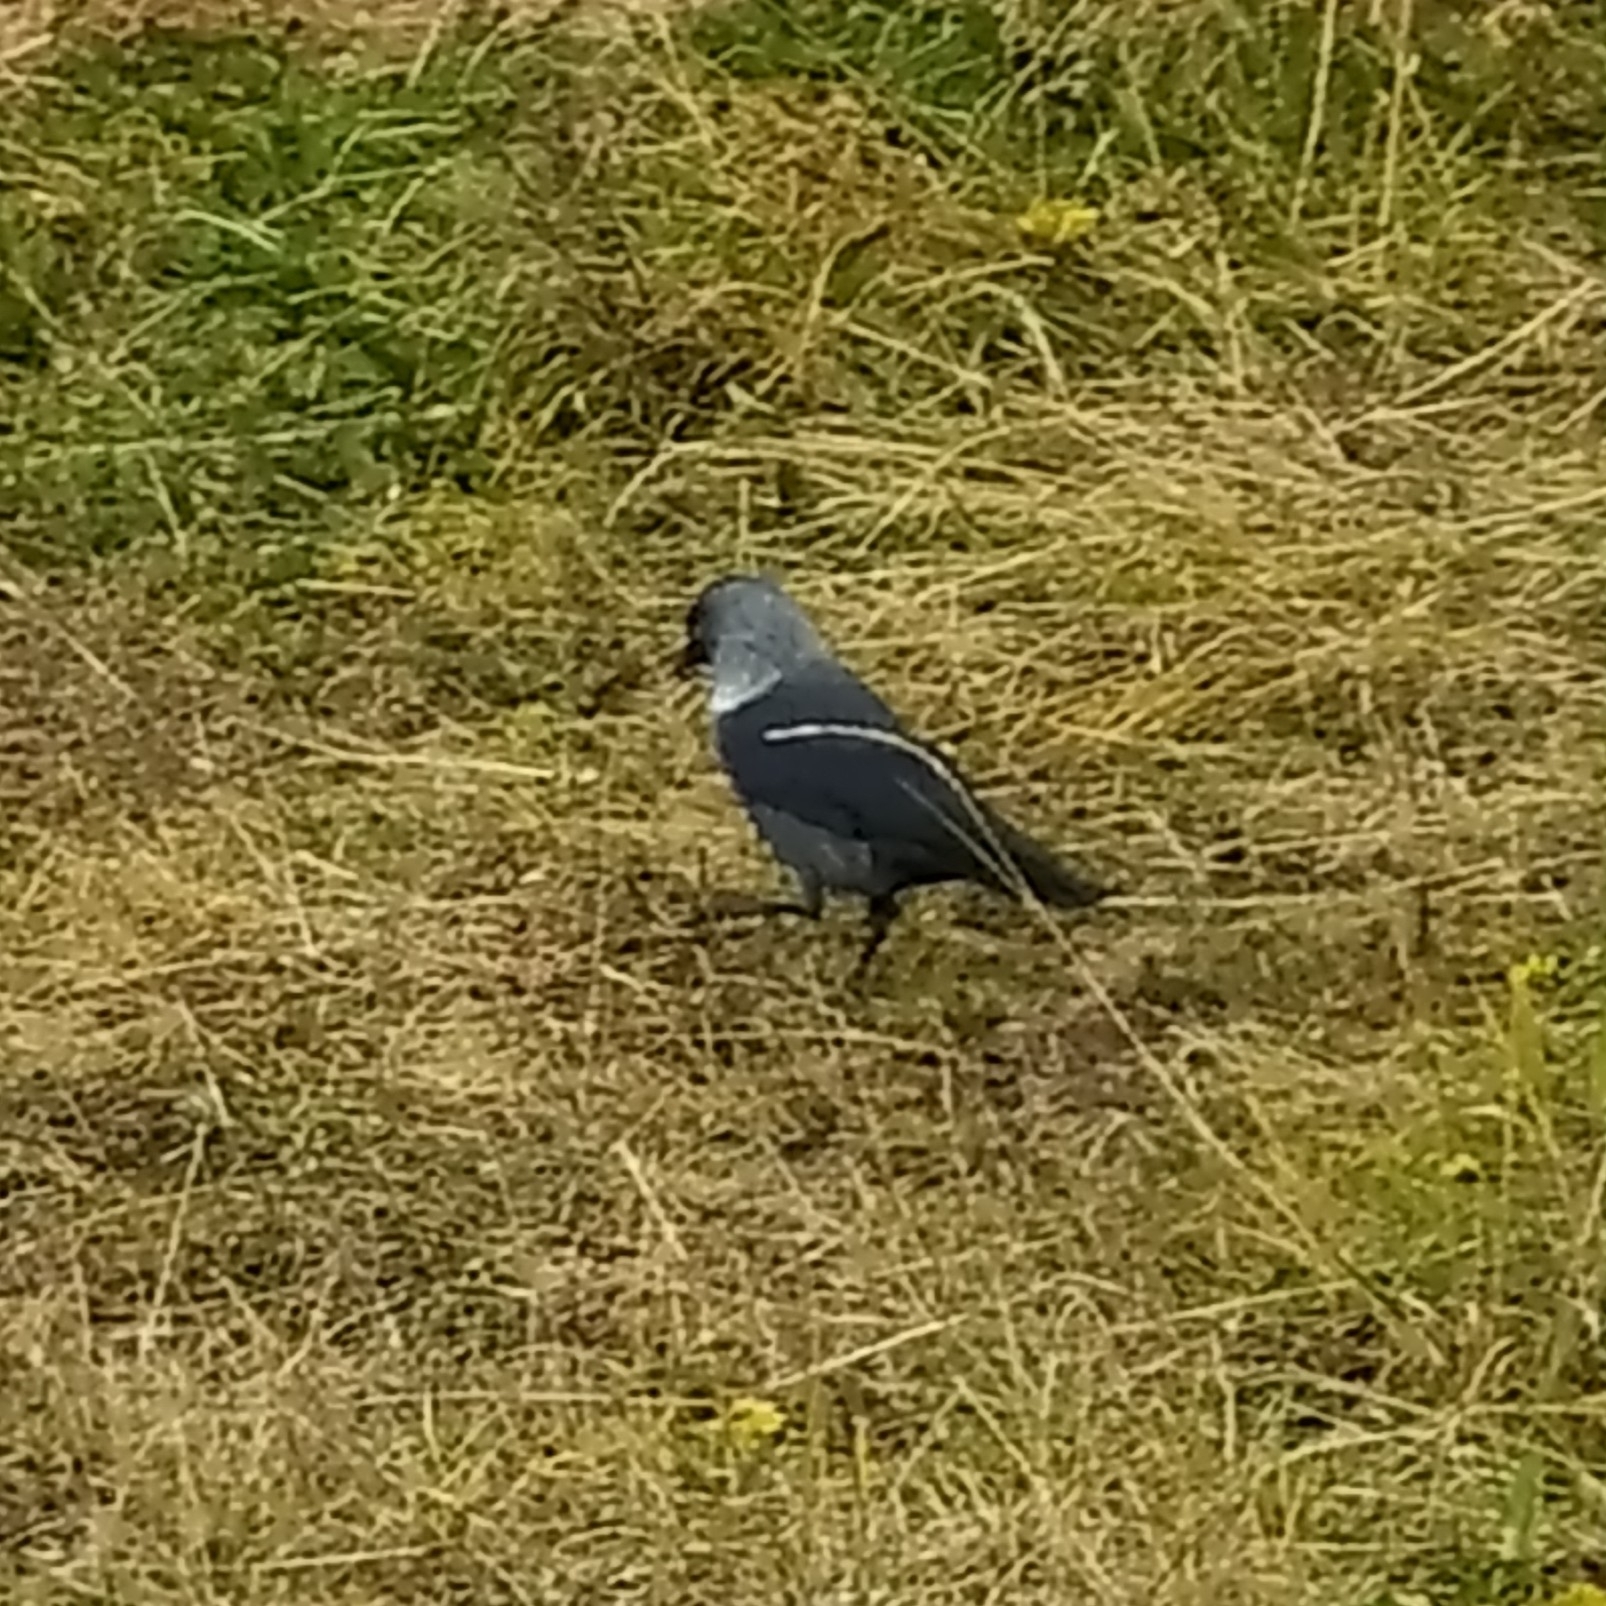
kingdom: Animalia
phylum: Chordata
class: Aves
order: Passeriformes
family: Corvidae
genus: Coloeus
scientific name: Coloeus monedula
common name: Western jackdaw
